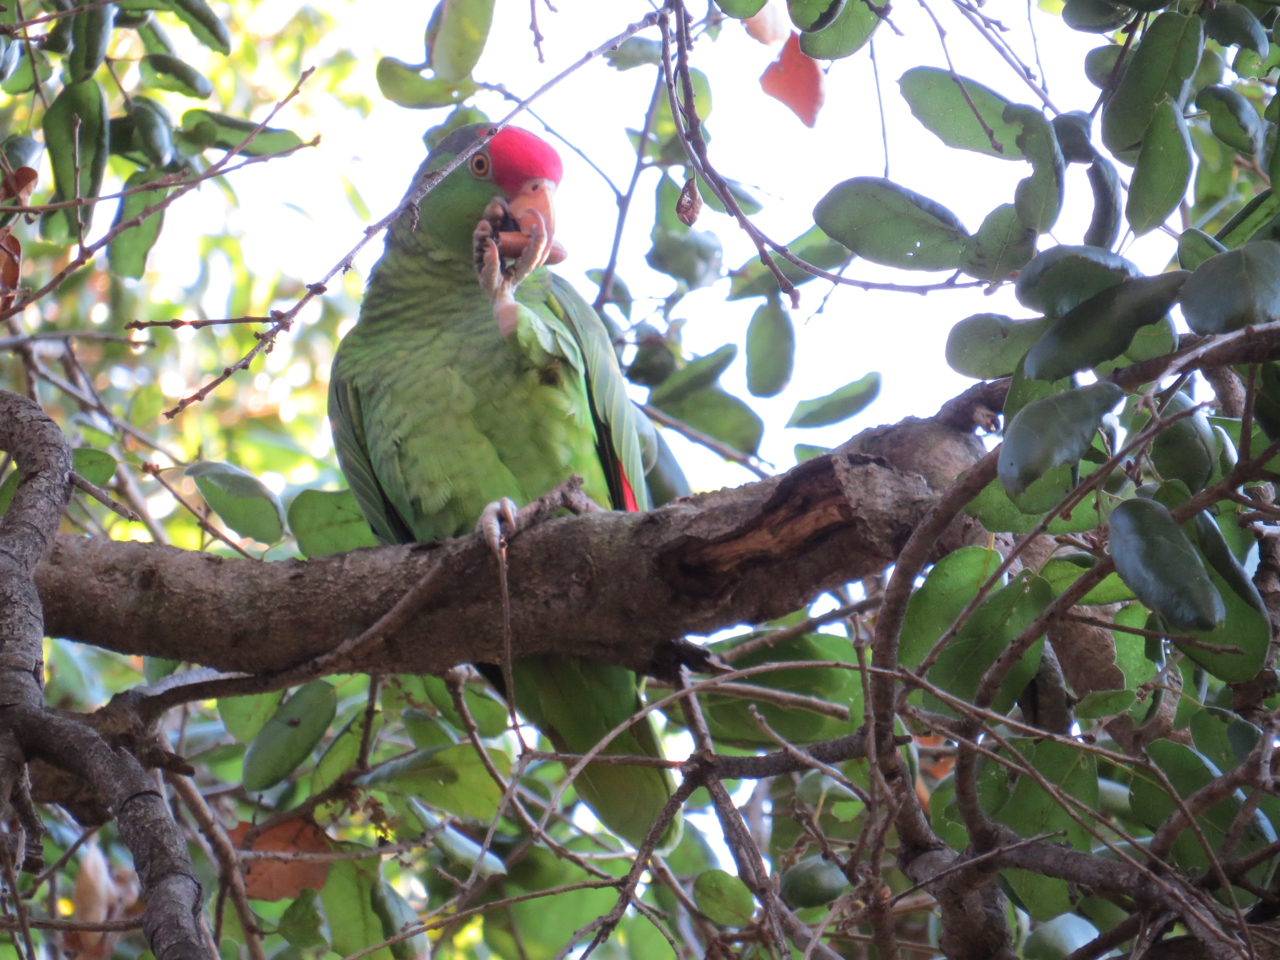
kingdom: Animalia
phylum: Chordata
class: Aves
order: Psittaciformes
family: Psittacidae
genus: Amazona
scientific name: Amazona viridigenalis
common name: Red-crowned amazon
